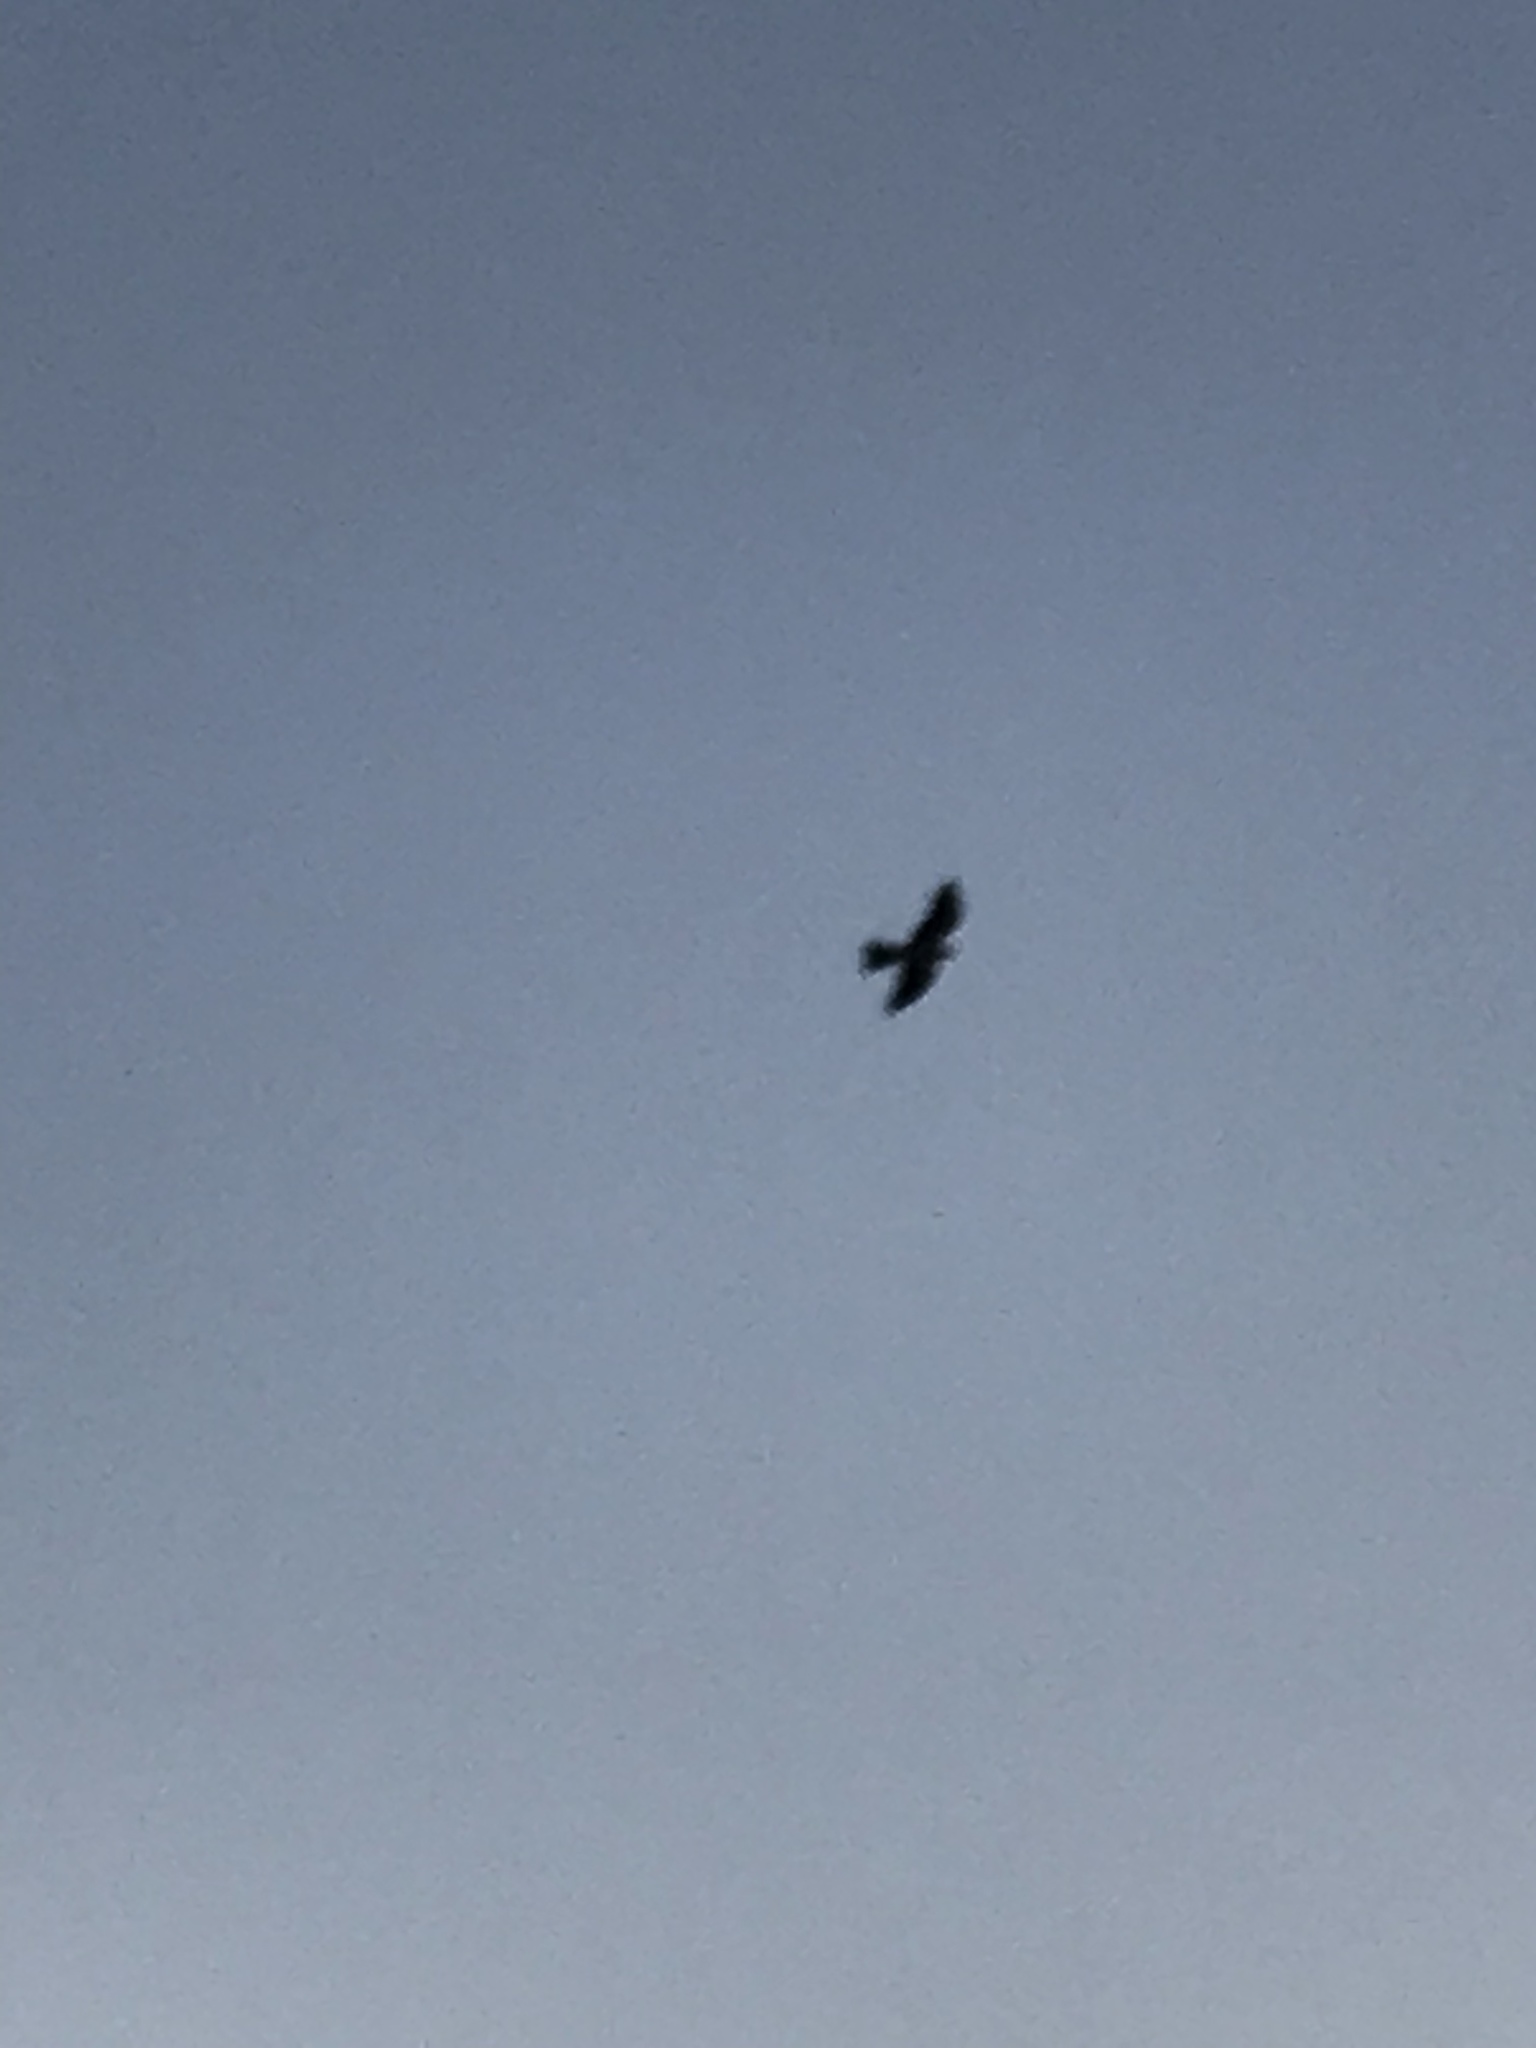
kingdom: Animalia
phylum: Chordata
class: Aves
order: Accipitriformes
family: Accipitridae
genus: Ictinia
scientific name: Ictinia mississippiensis
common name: Mississippi kite
